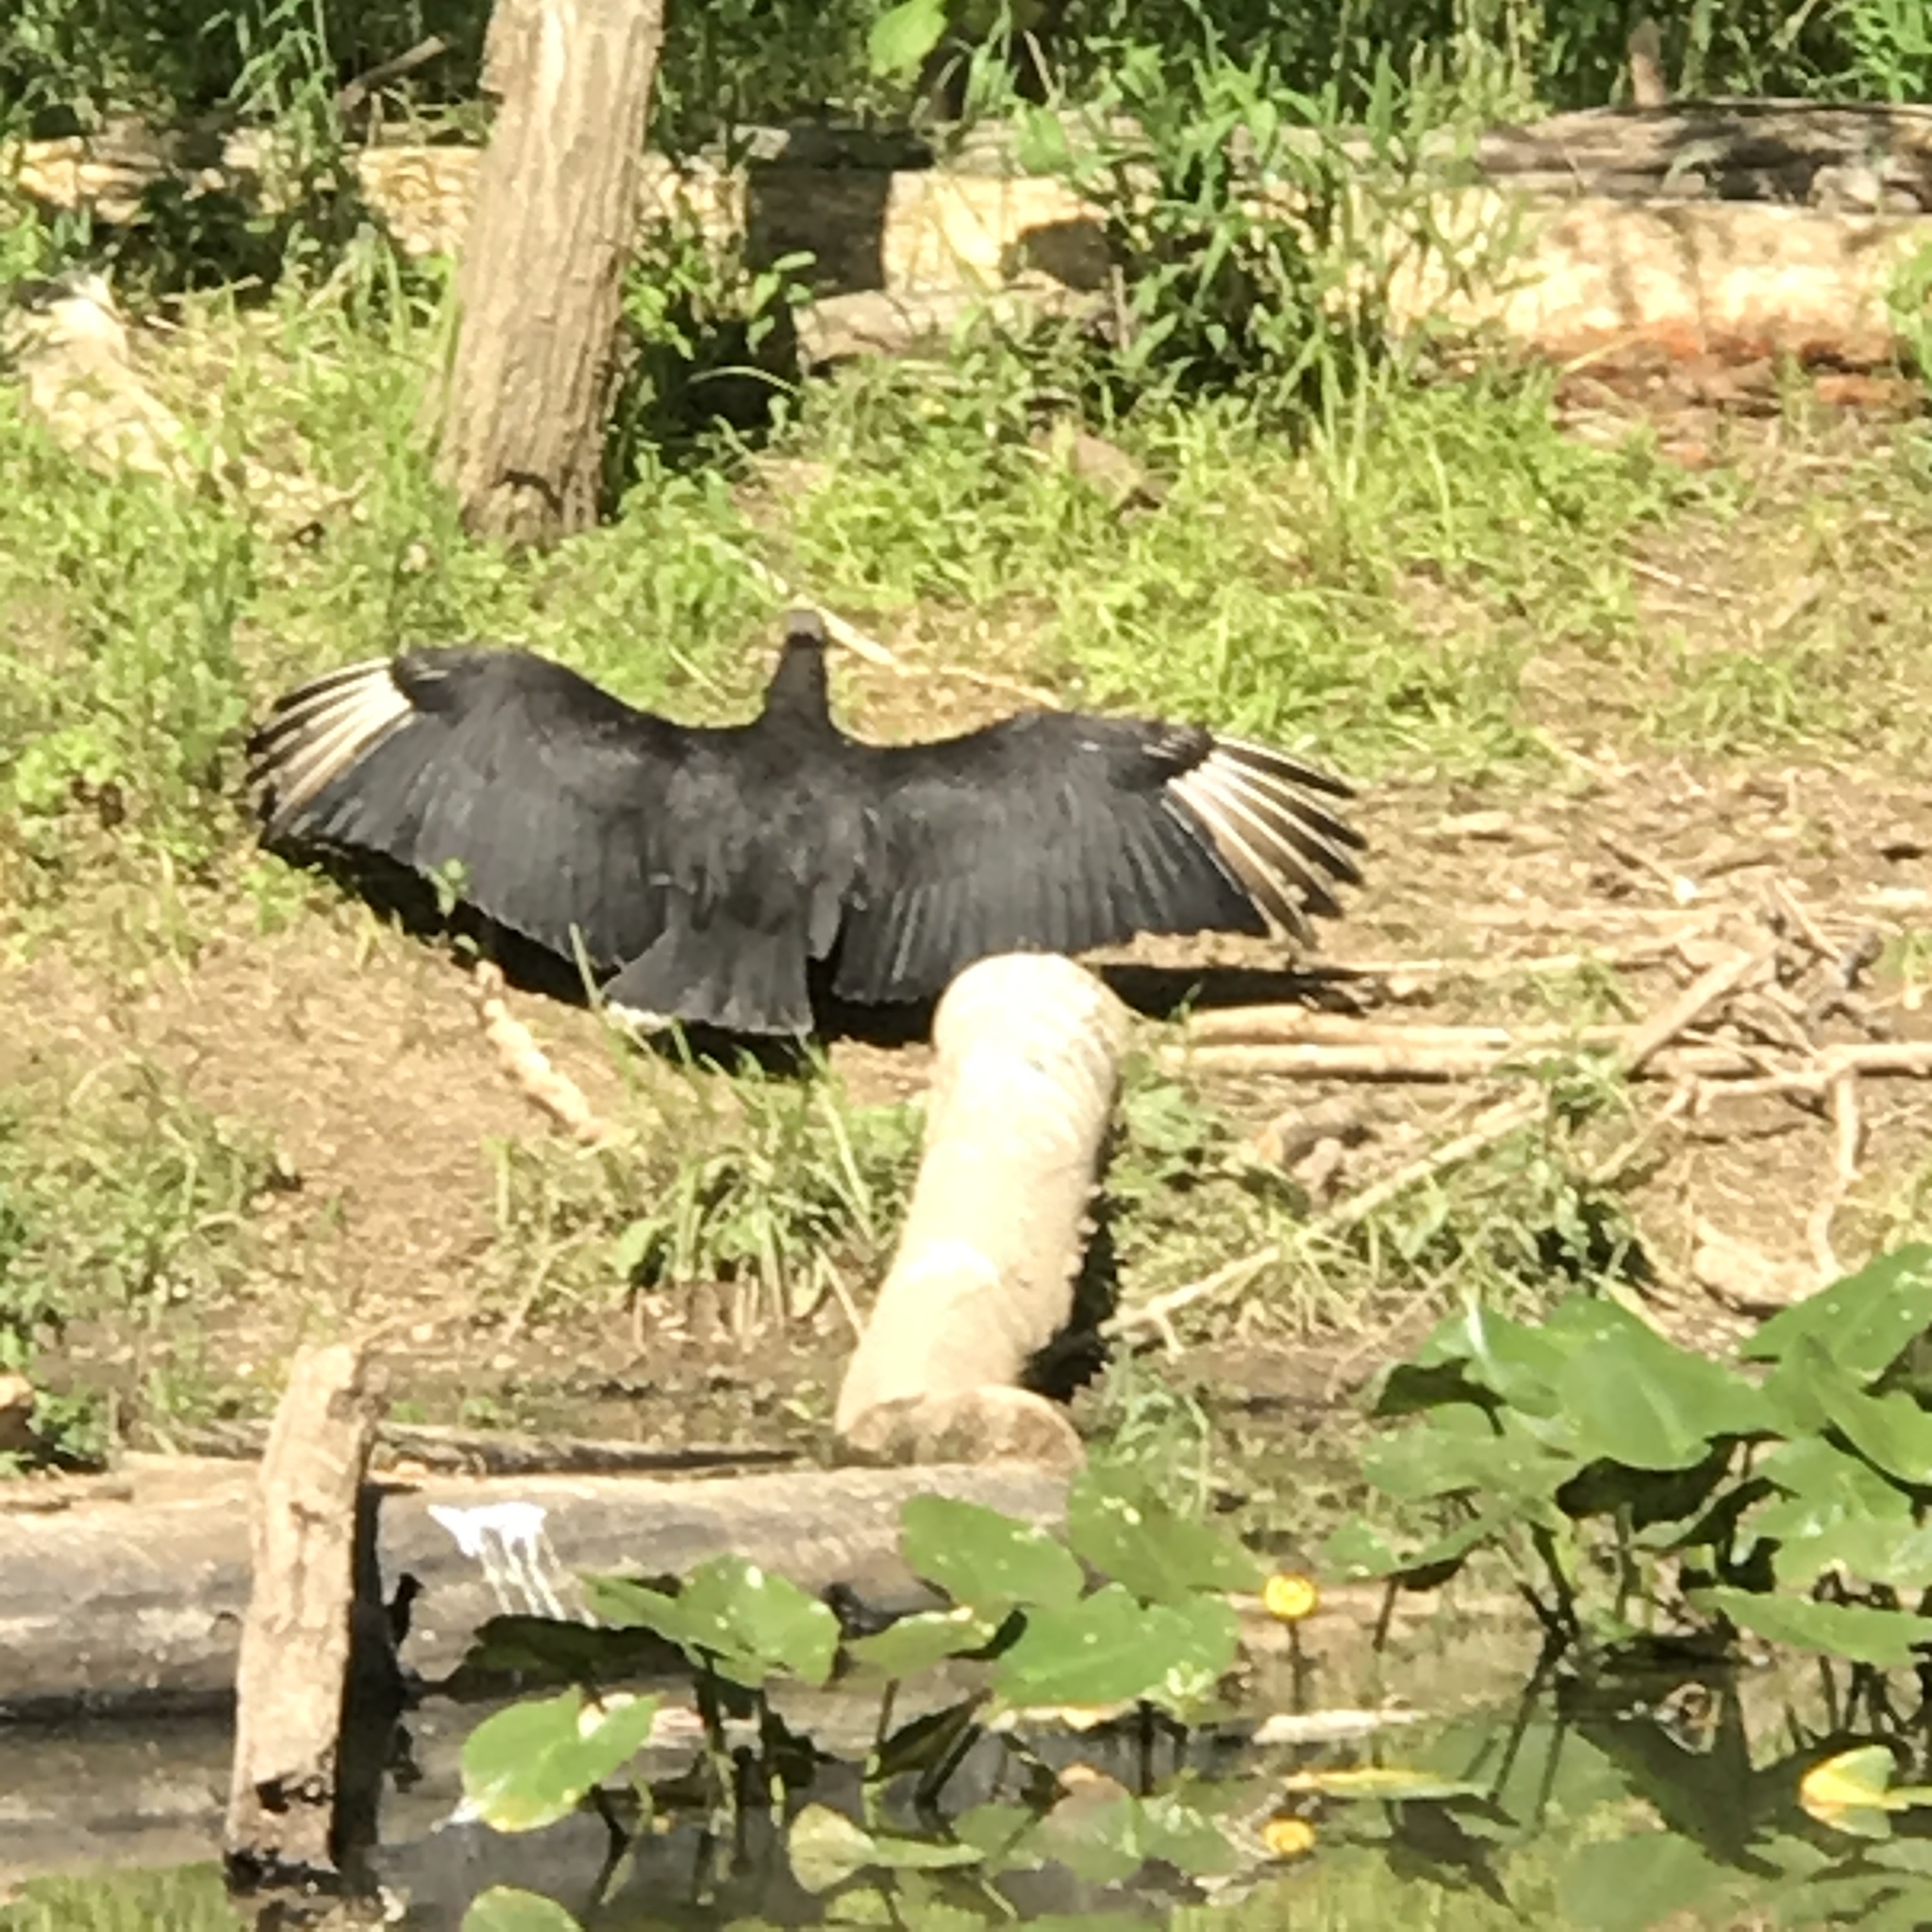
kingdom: Animalia
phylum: Chordata
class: Aves
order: Accipitriformes
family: Cathartidae
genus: Coragyps
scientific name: Coragyps atratus
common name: Black vulture
